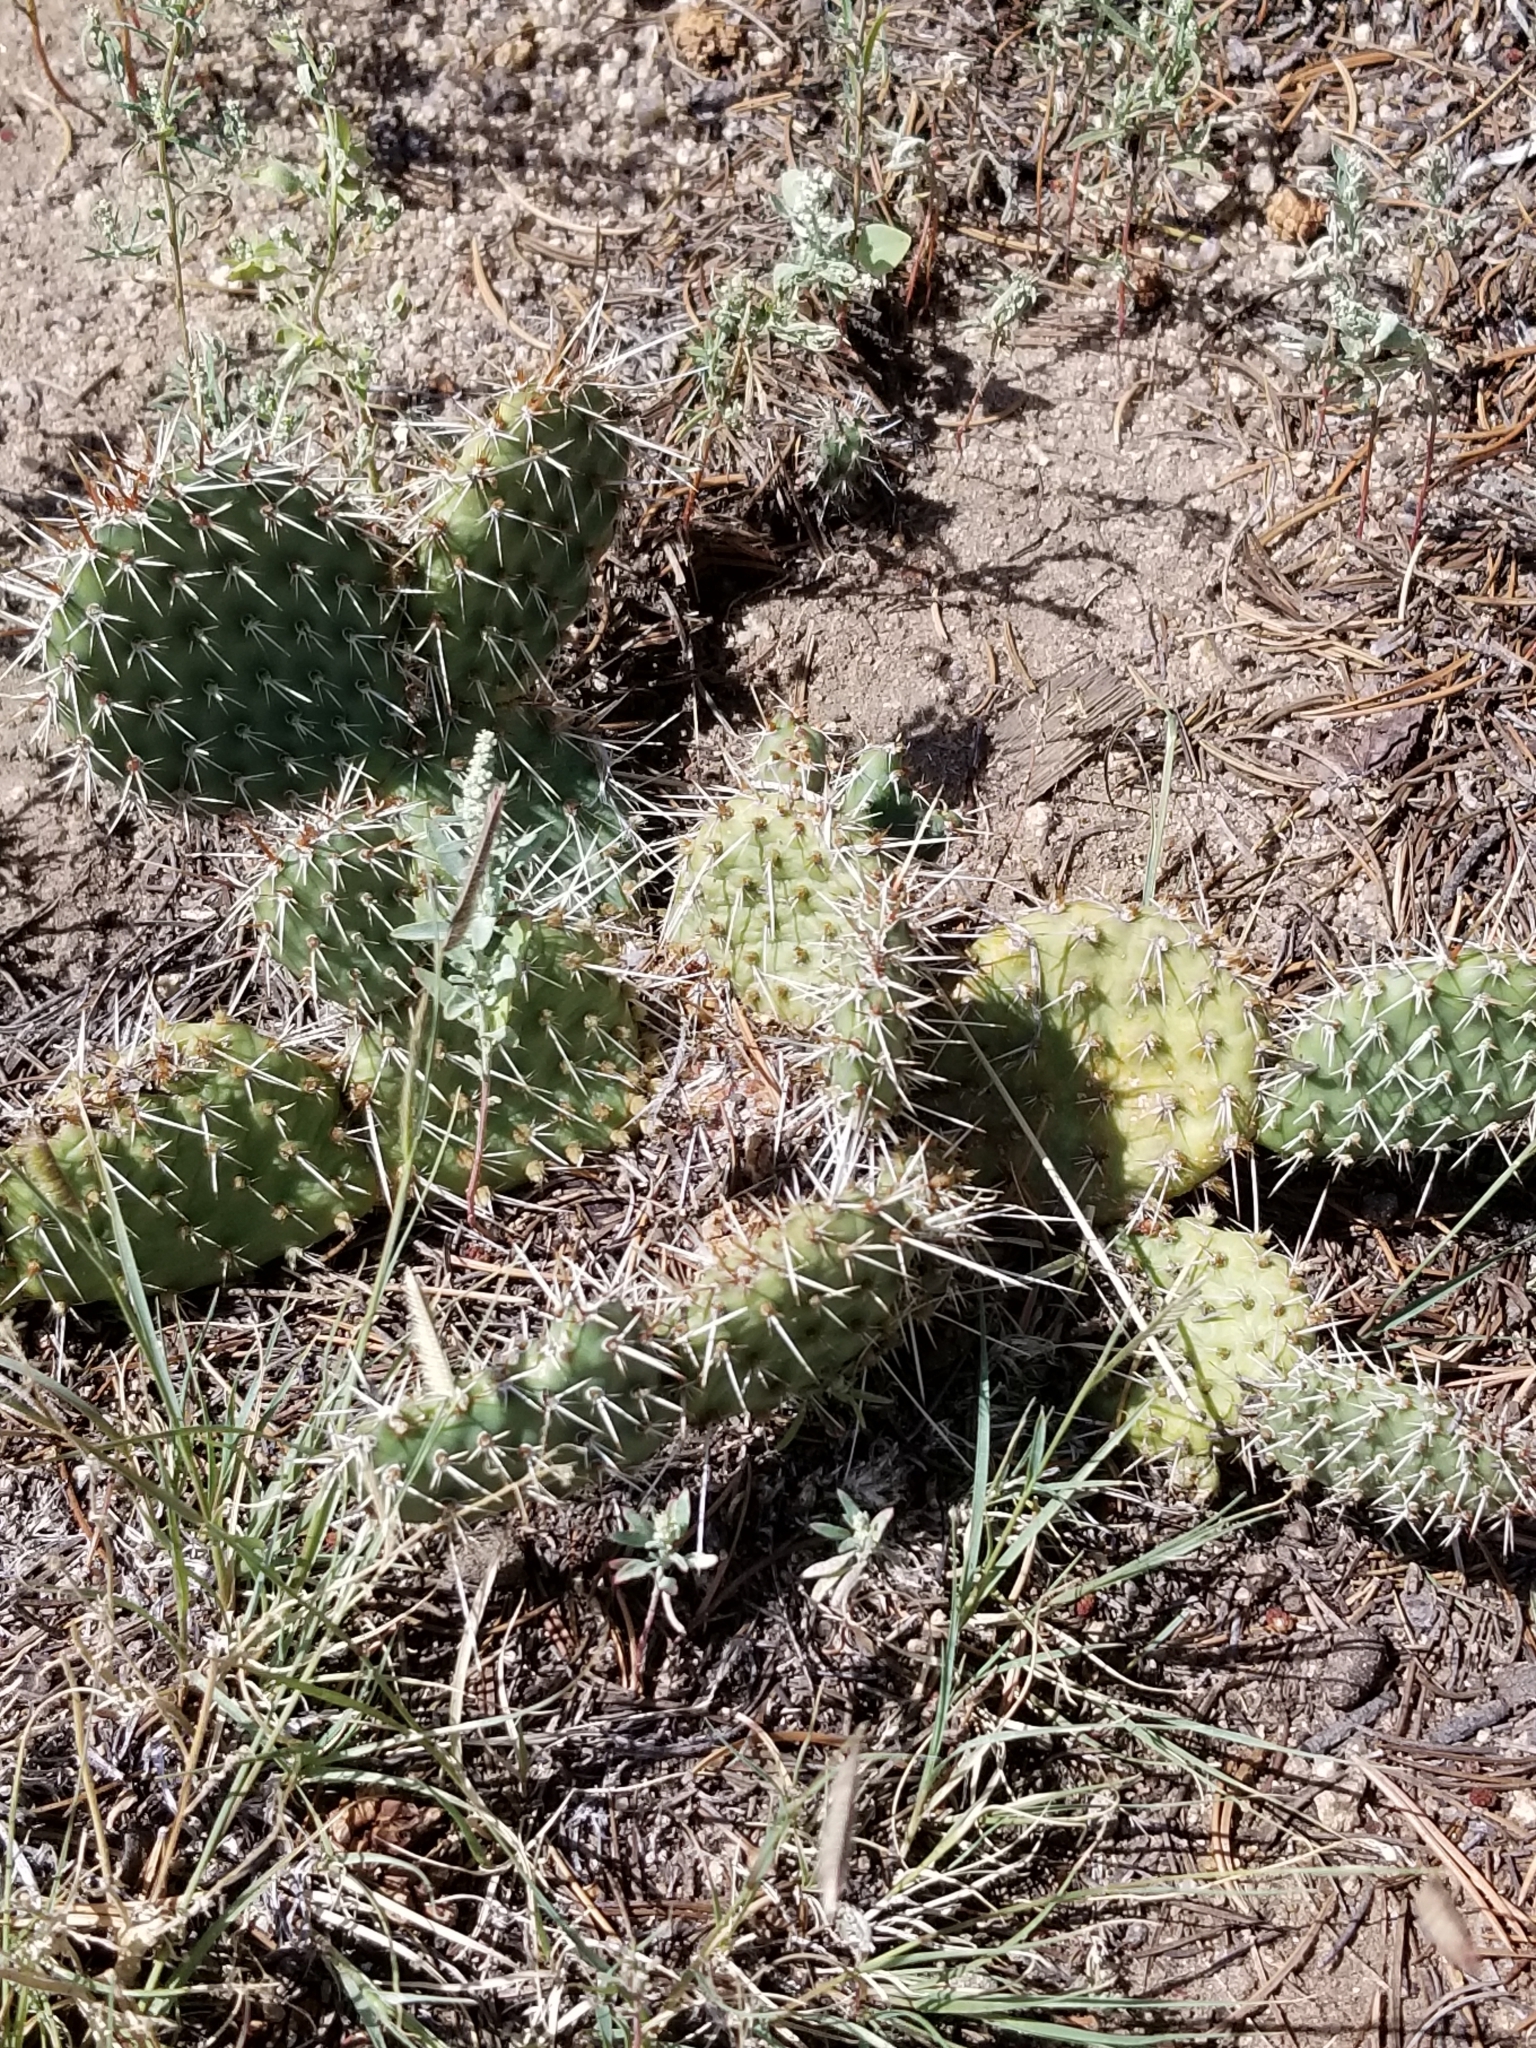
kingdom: Plantae
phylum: Tracheophyta
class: Magnoliopsida
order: Caryophyllales
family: Cactaceae
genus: Opuntia
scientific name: Opuntia polyacantha
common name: Plains prickly-pear
